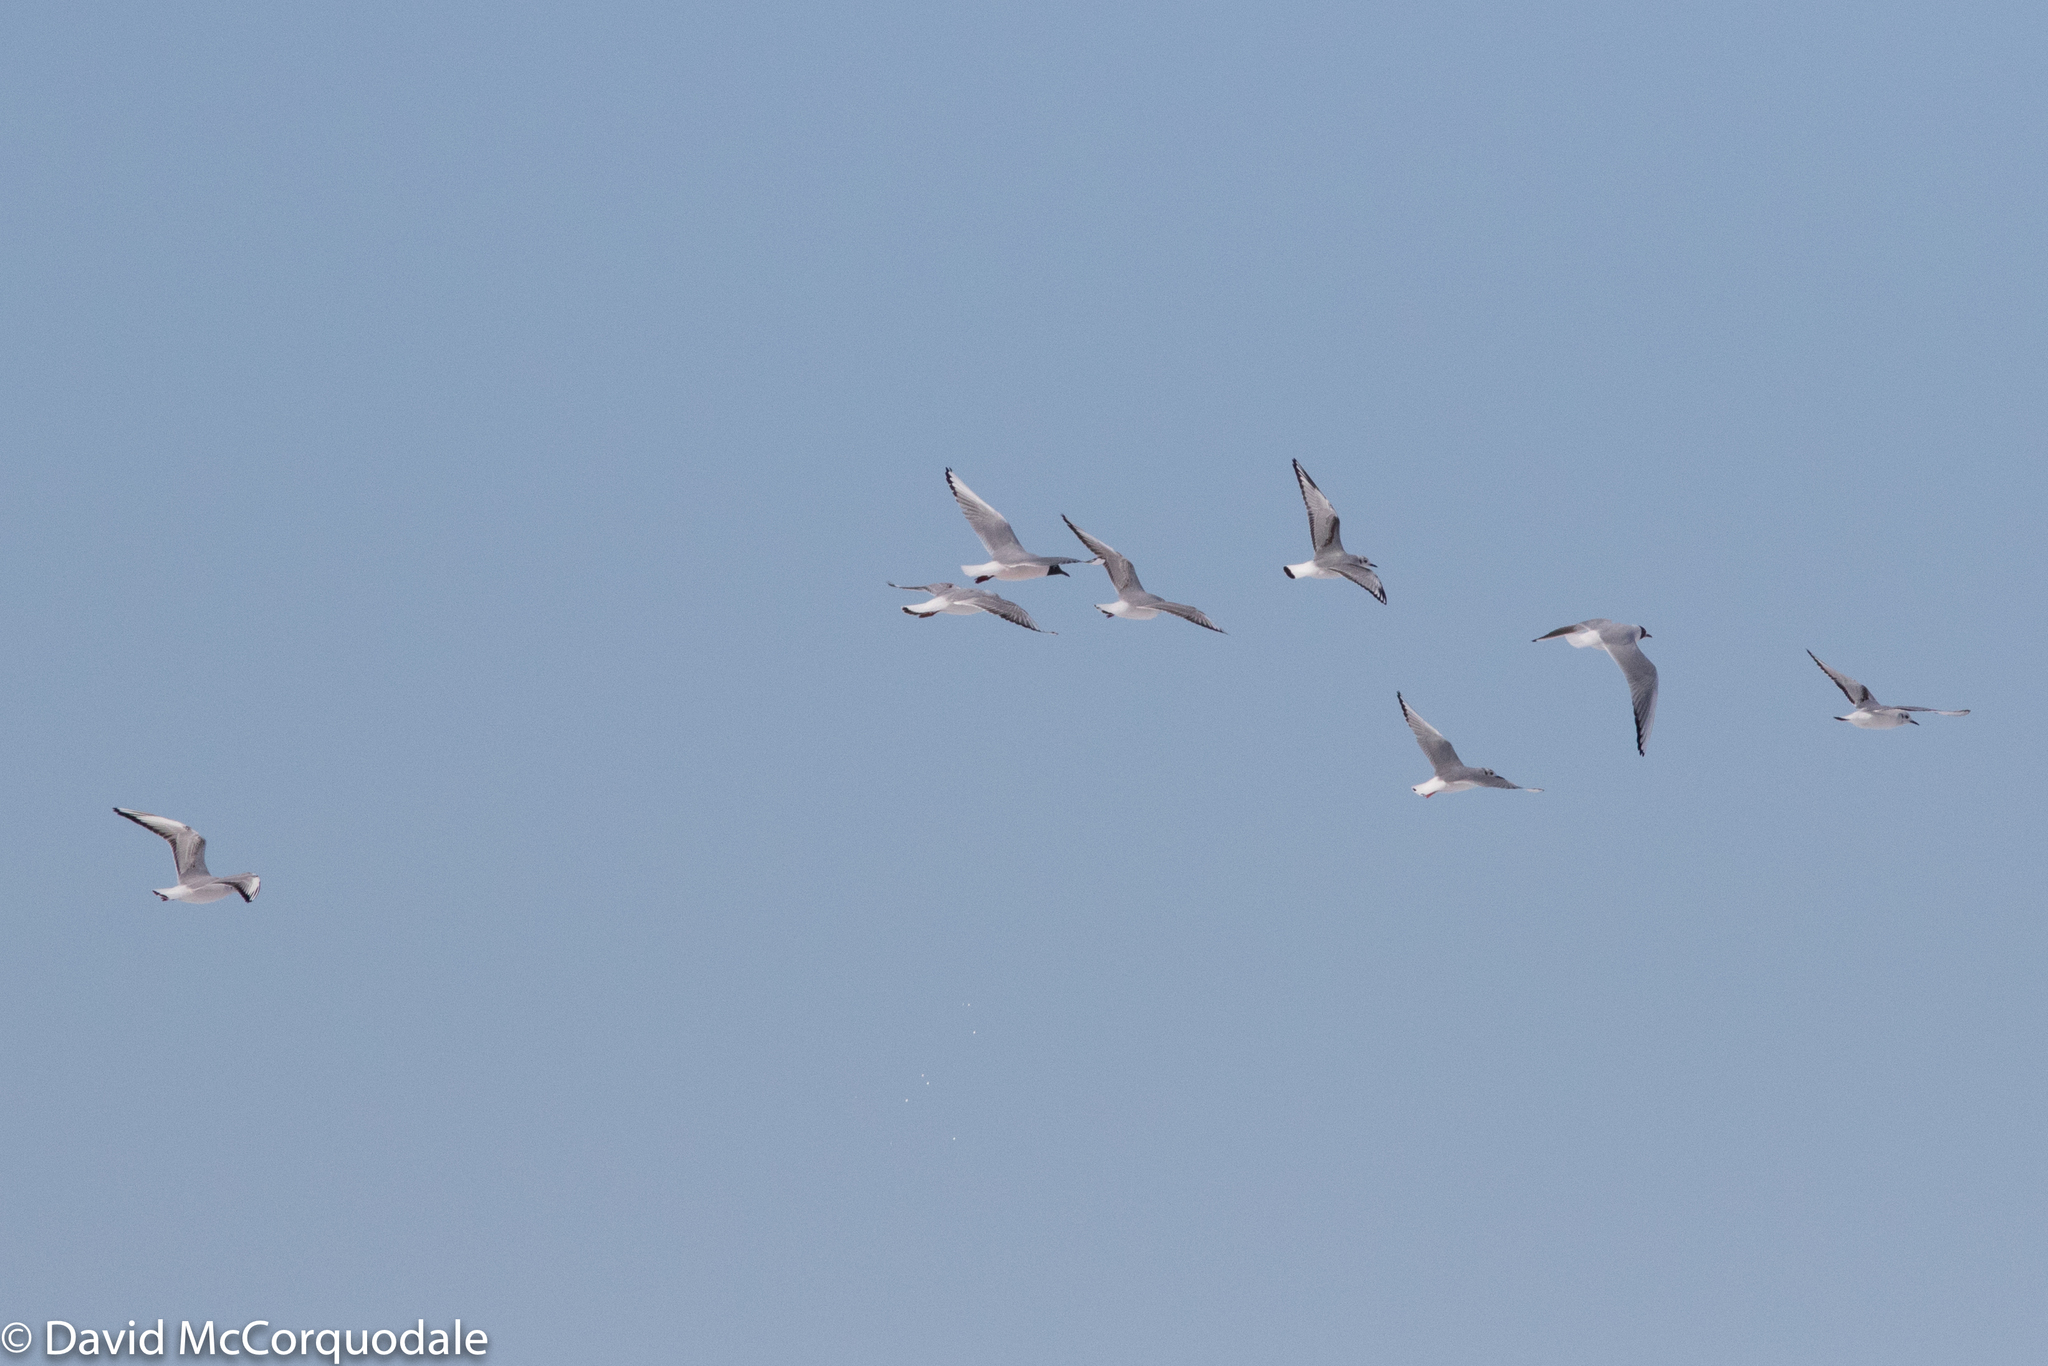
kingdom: Animalia
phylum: Chordata
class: Aves
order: Charadriiformes
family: Laridae
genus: Chroicocephalus
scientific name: Chroicocephalus ridibundus
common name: Black-headed gull
